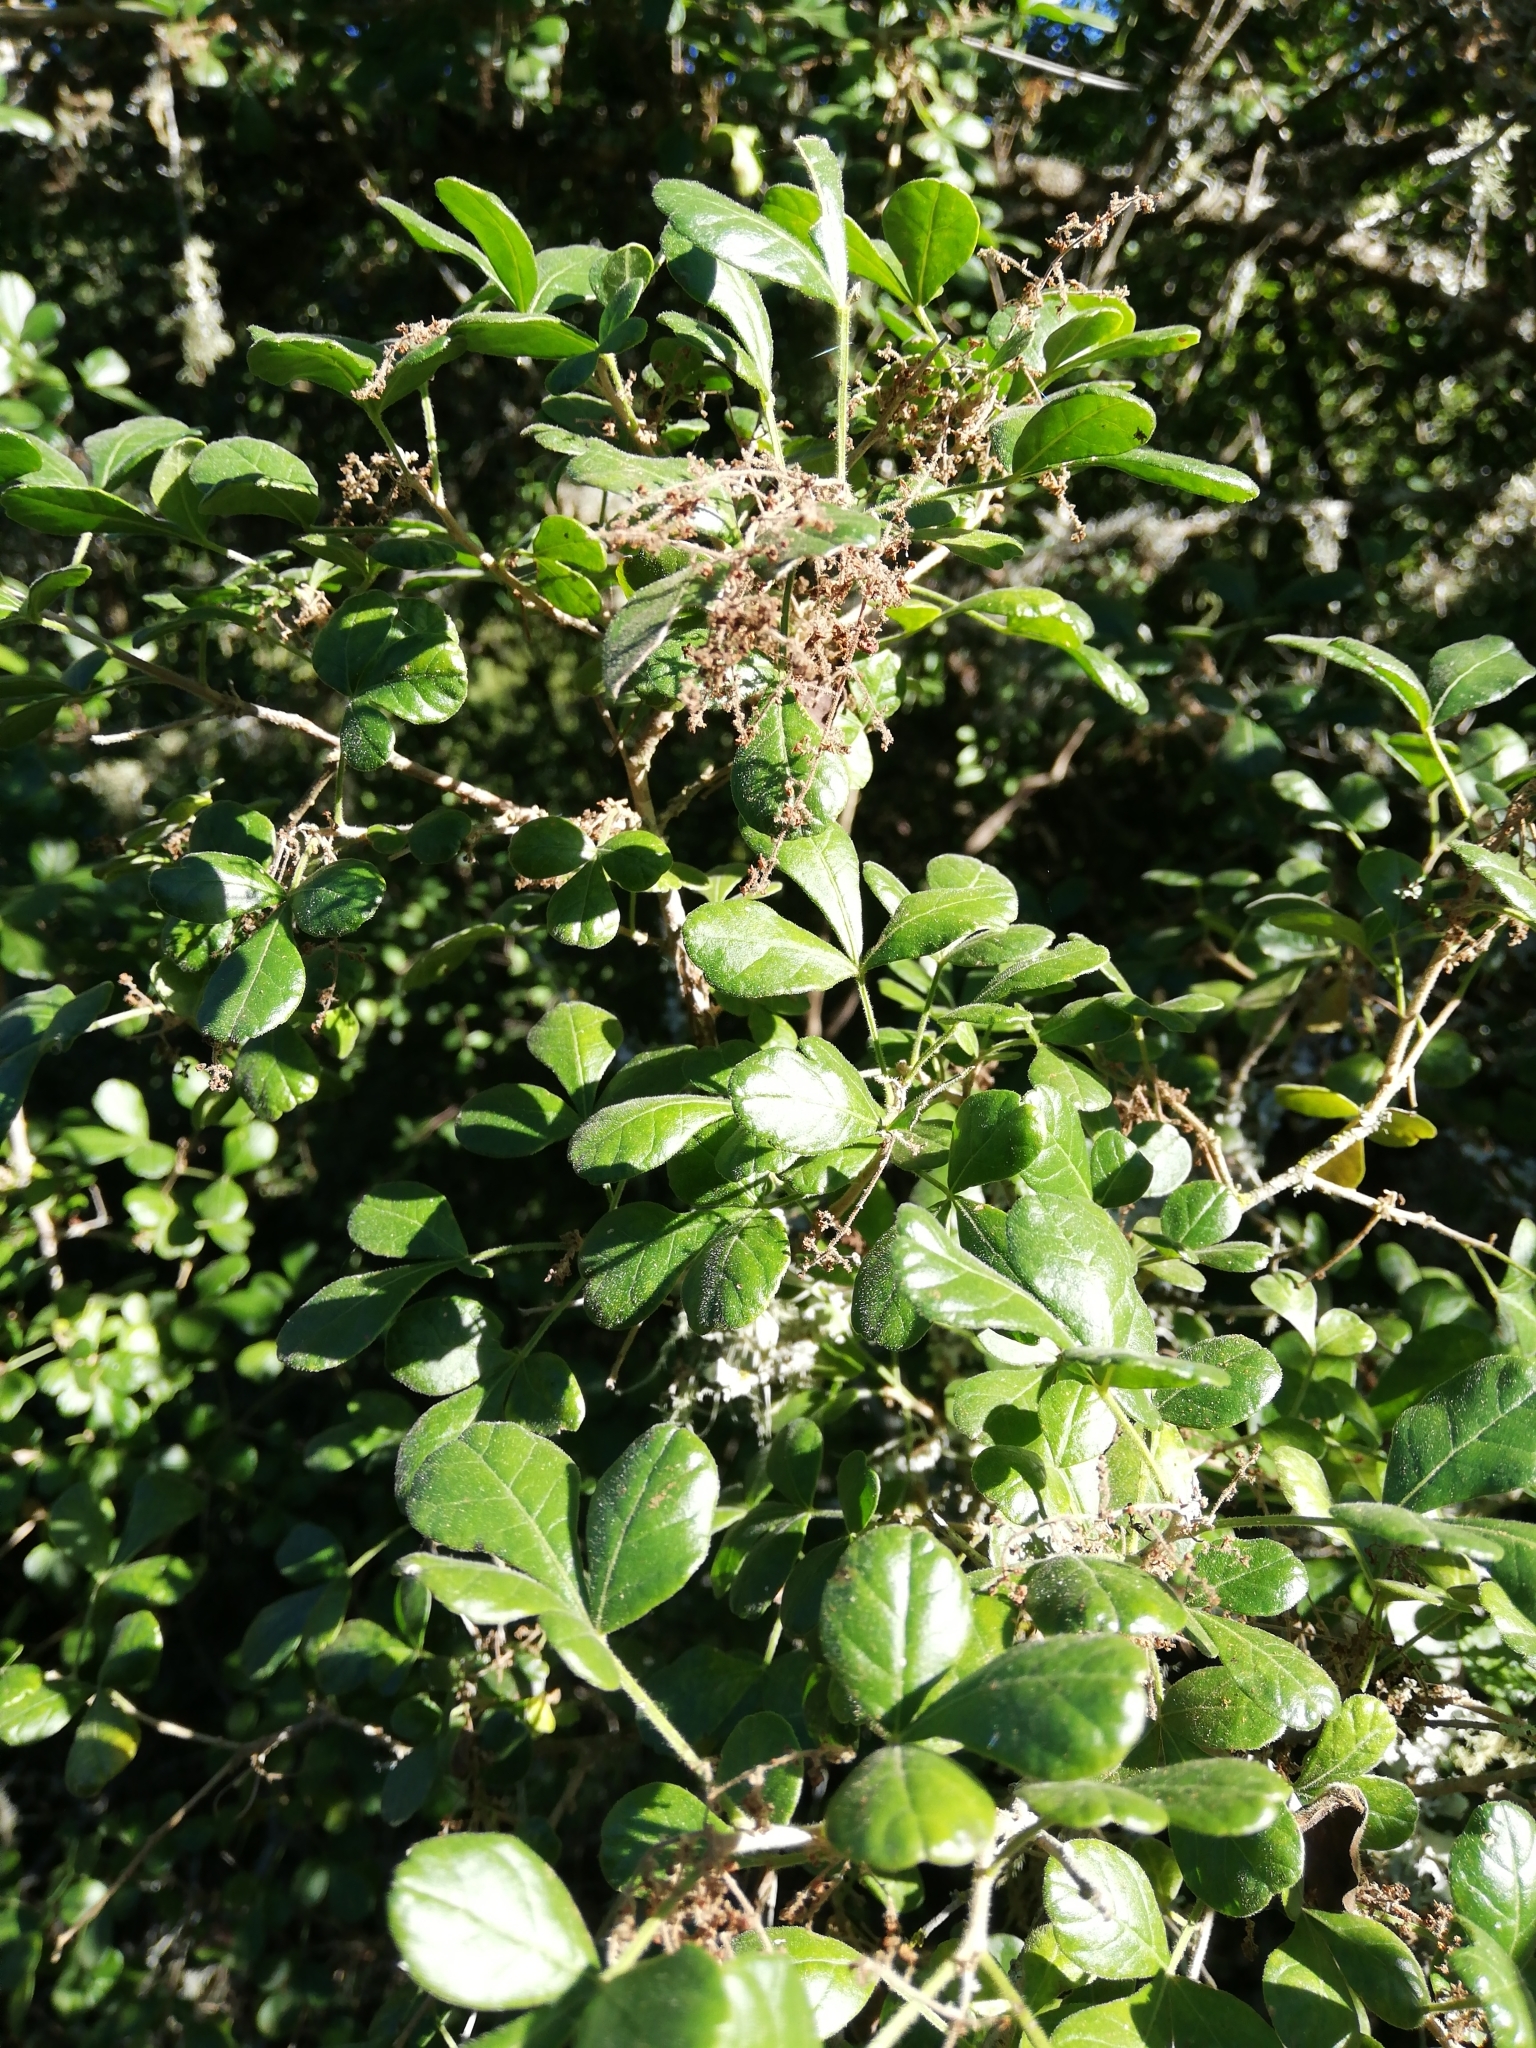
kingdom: Plantae
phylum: Tracheophyta
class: Magnoliopsida
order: Sapindales
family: Anacardiaceae
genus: Searsia
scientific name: Searsia pyroides
